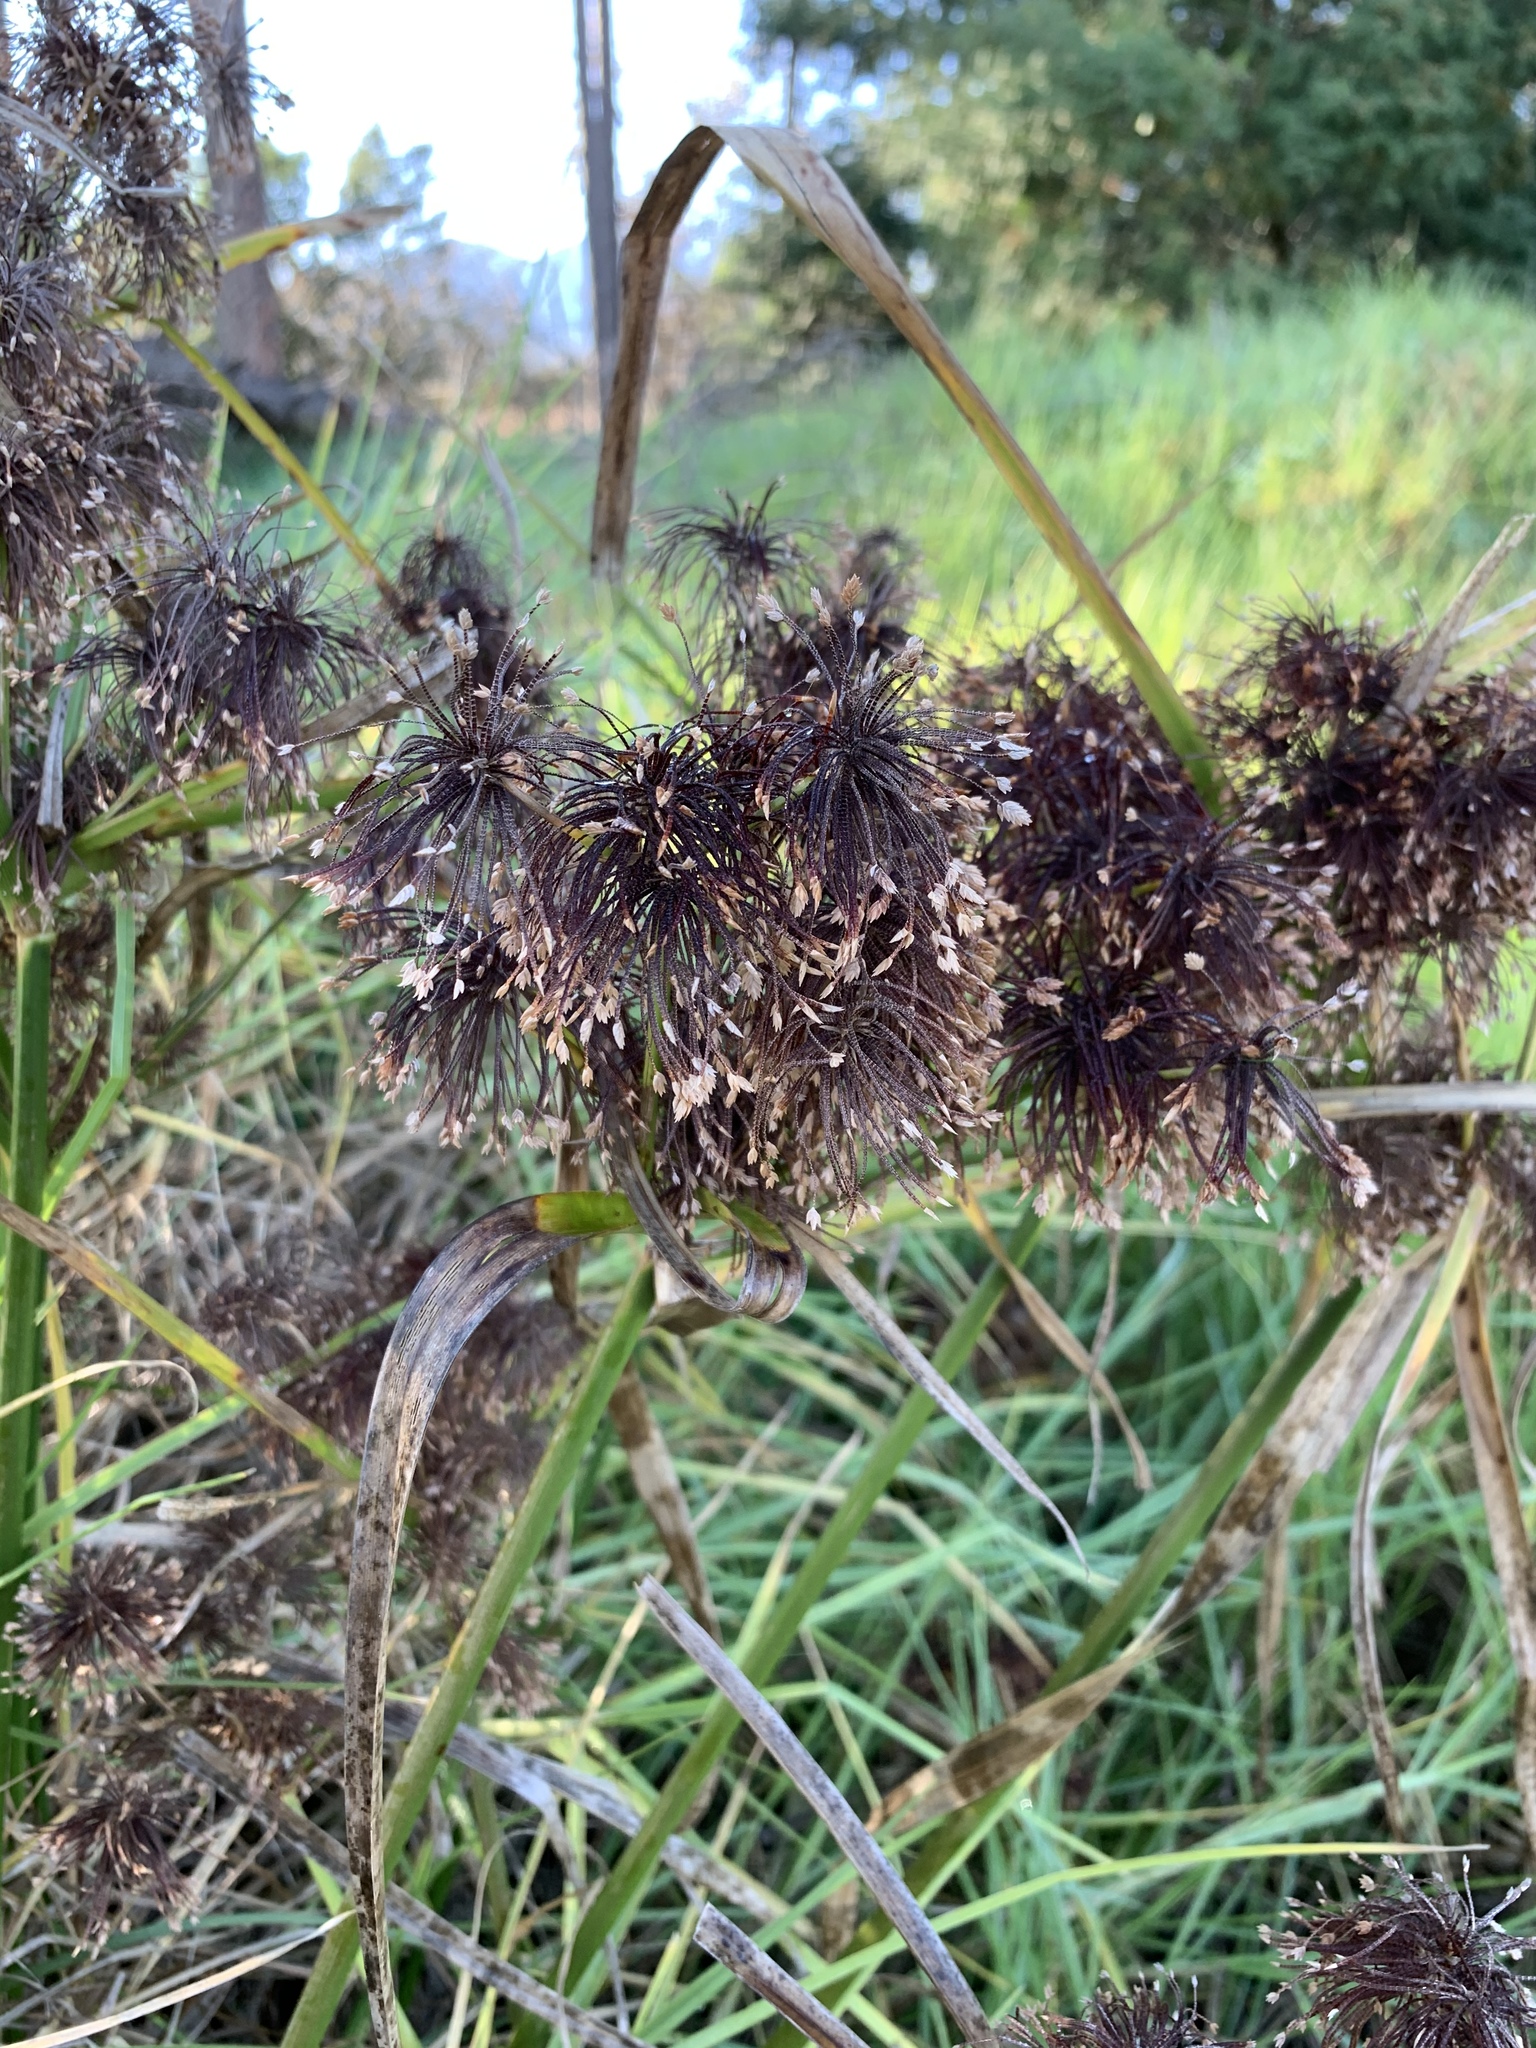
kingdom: Plantae
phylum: Tracheophyta
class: Liliopsida
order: Poales
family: Cyperaceae
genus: Cyperus
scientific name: Cyperus eragrostis
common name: Tall flatsedge
